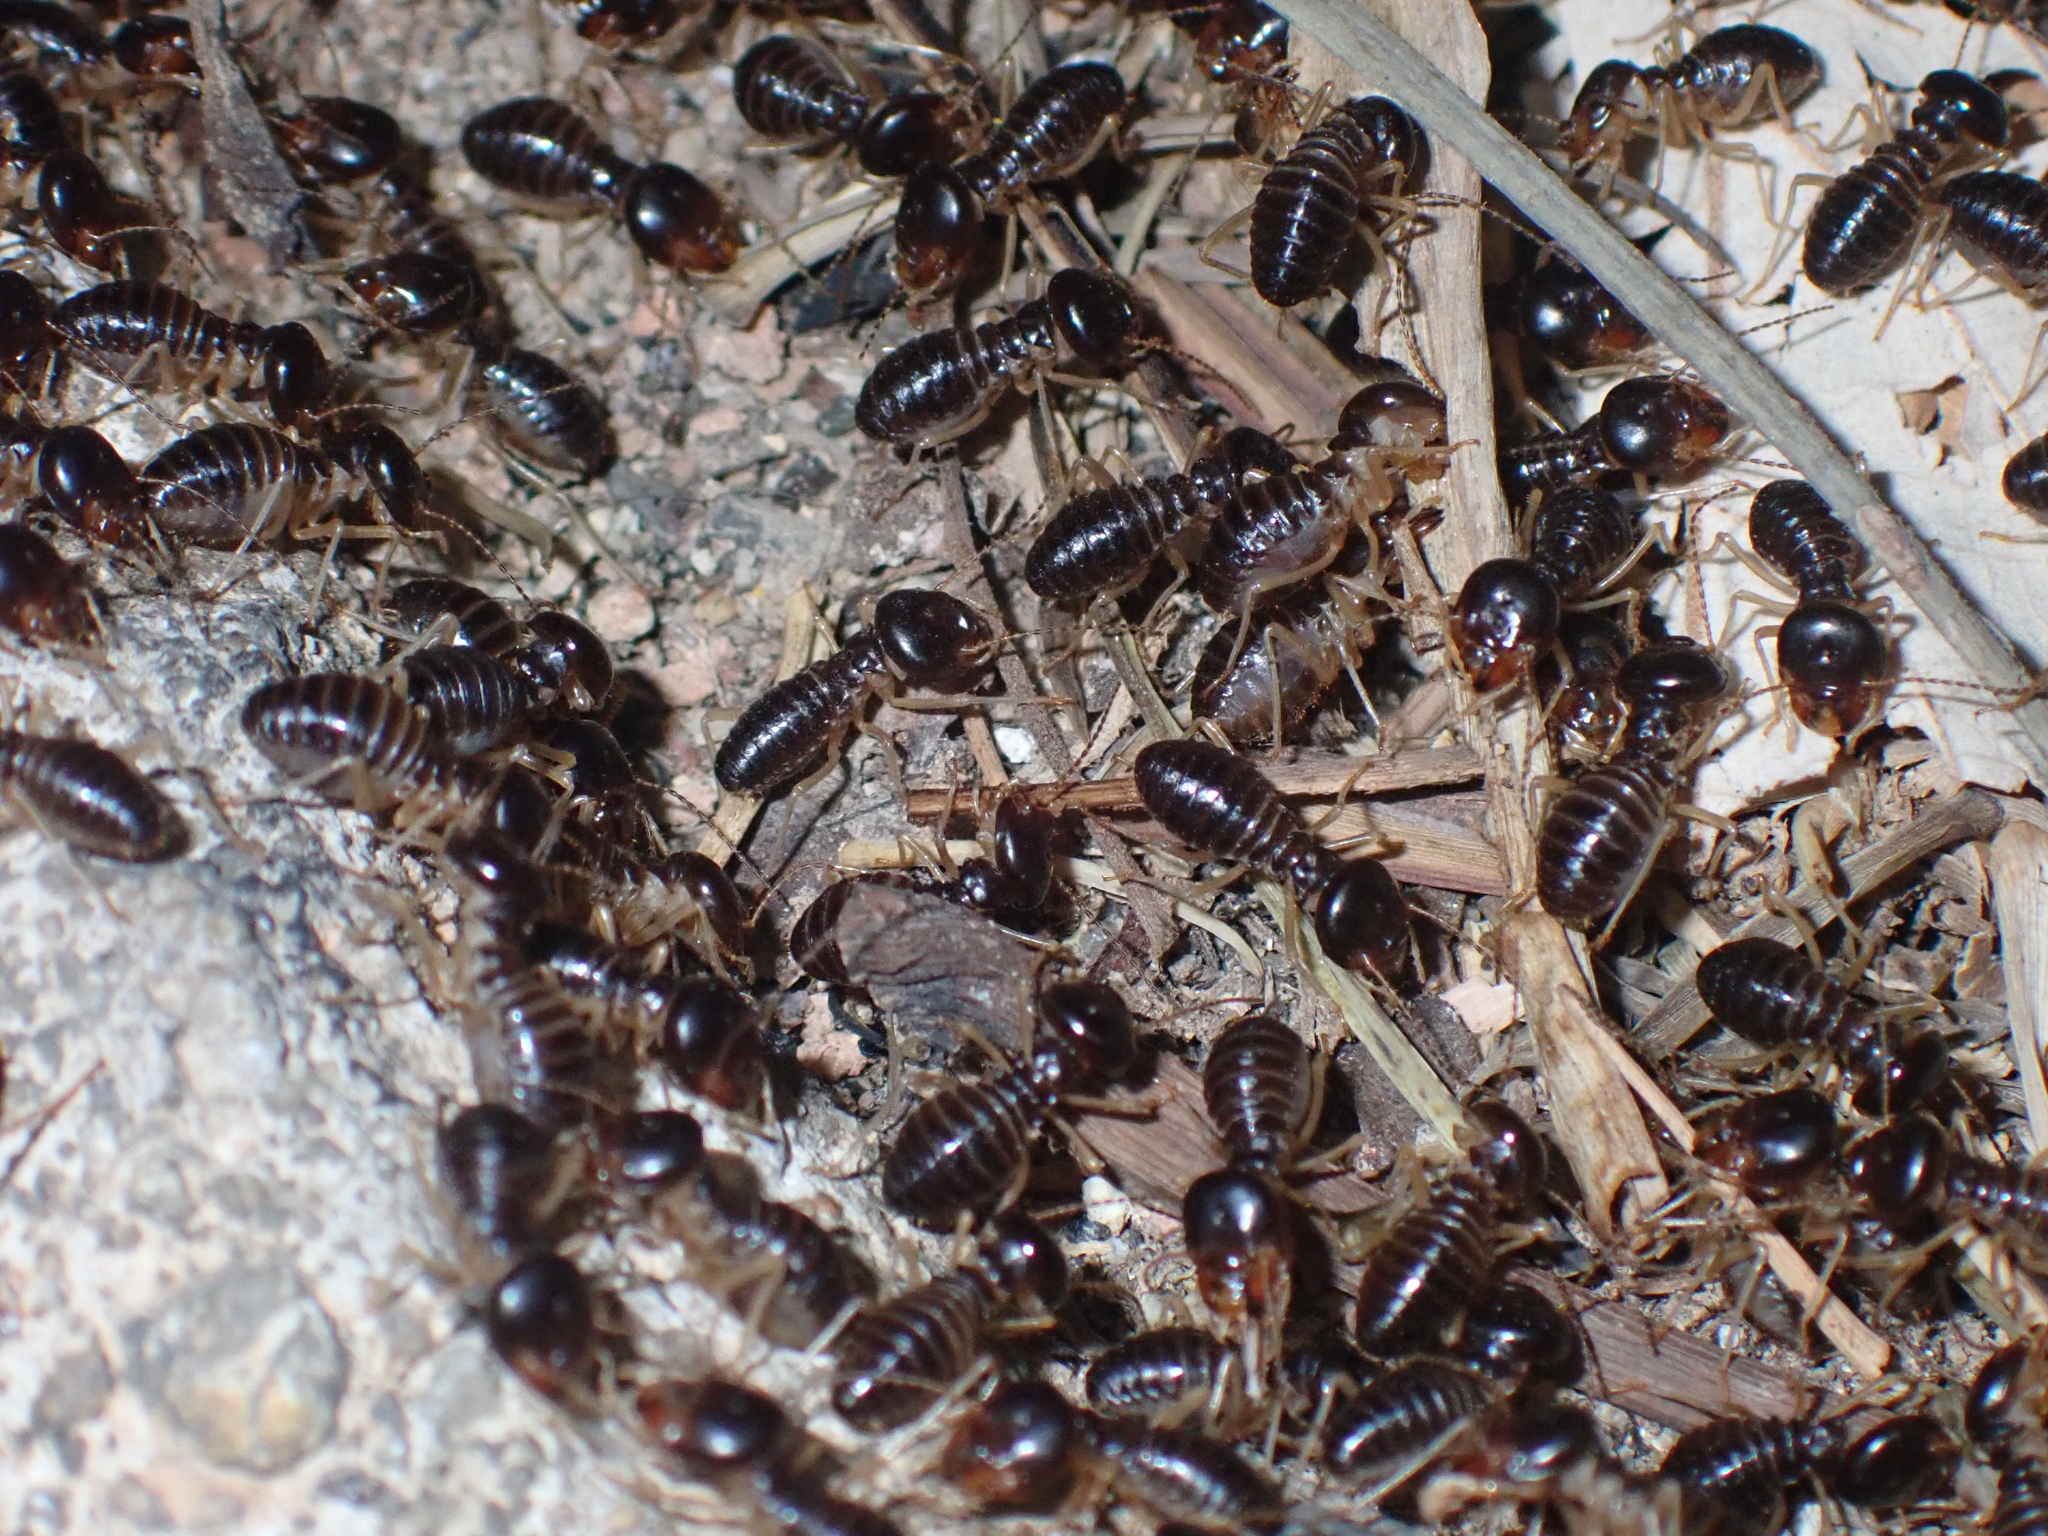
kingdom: Animalia
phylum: Arthropoda
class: Insecta
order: Blattodea
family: Termitidae
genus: Macrotermes
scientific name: Macrotermes carbonarius
